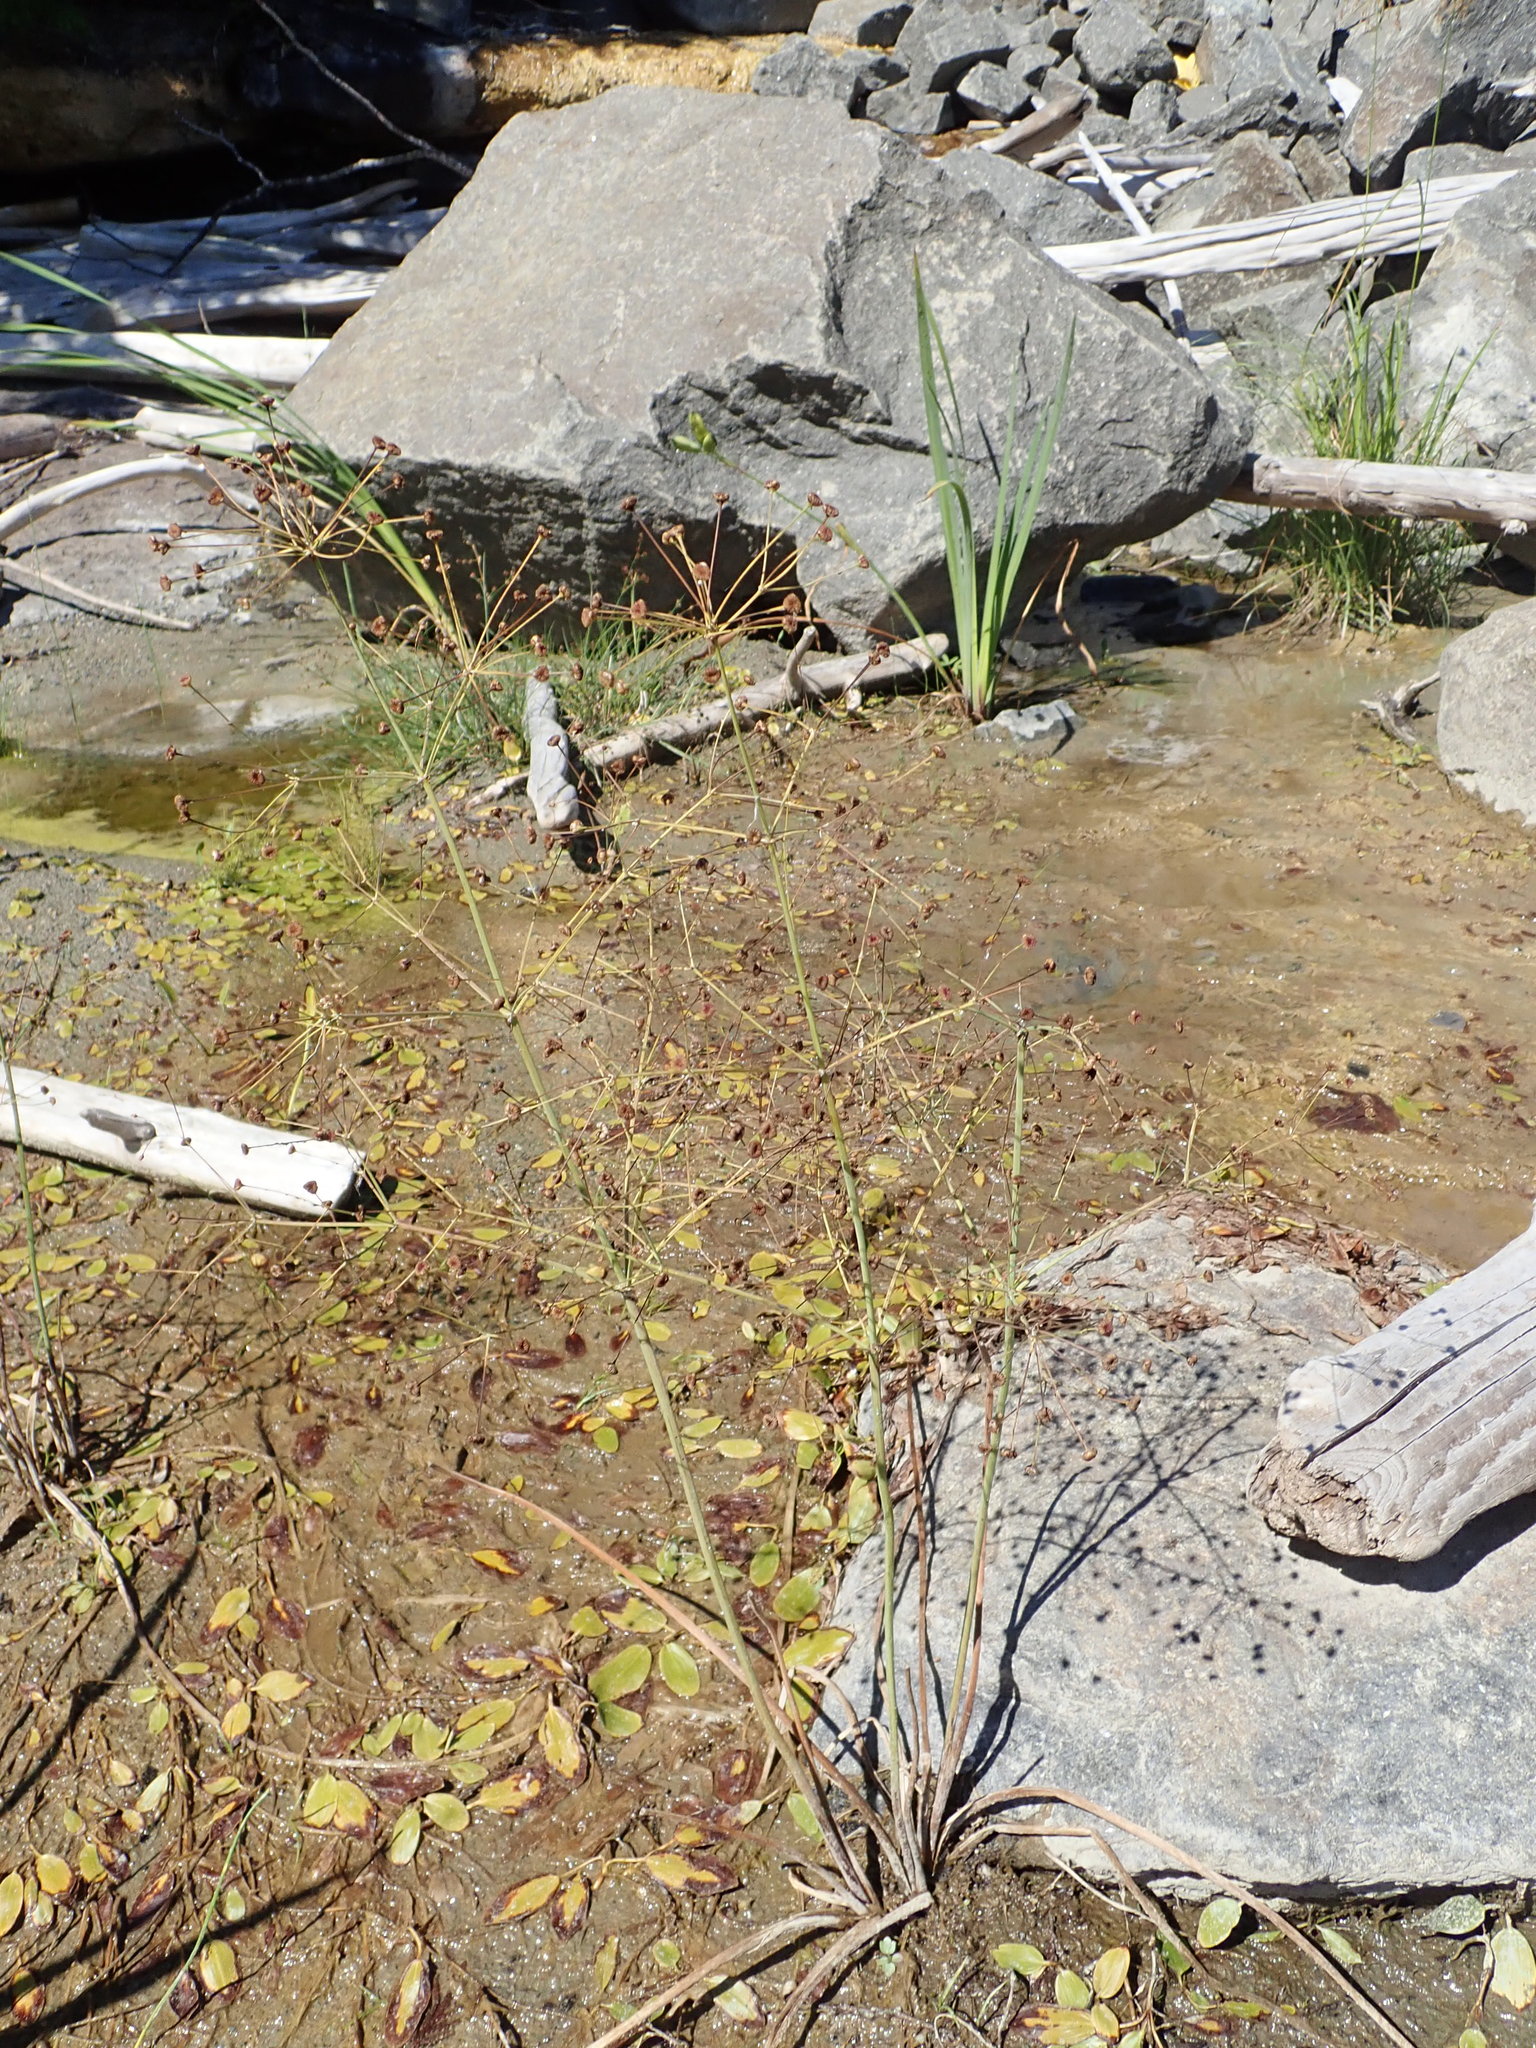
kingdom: Plantae
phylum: Tracheophyta
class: Liliopsida
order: Alismatales
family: Alismataceae
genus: Alisma
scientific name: Alisma triviale
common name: Northern water-plantain
